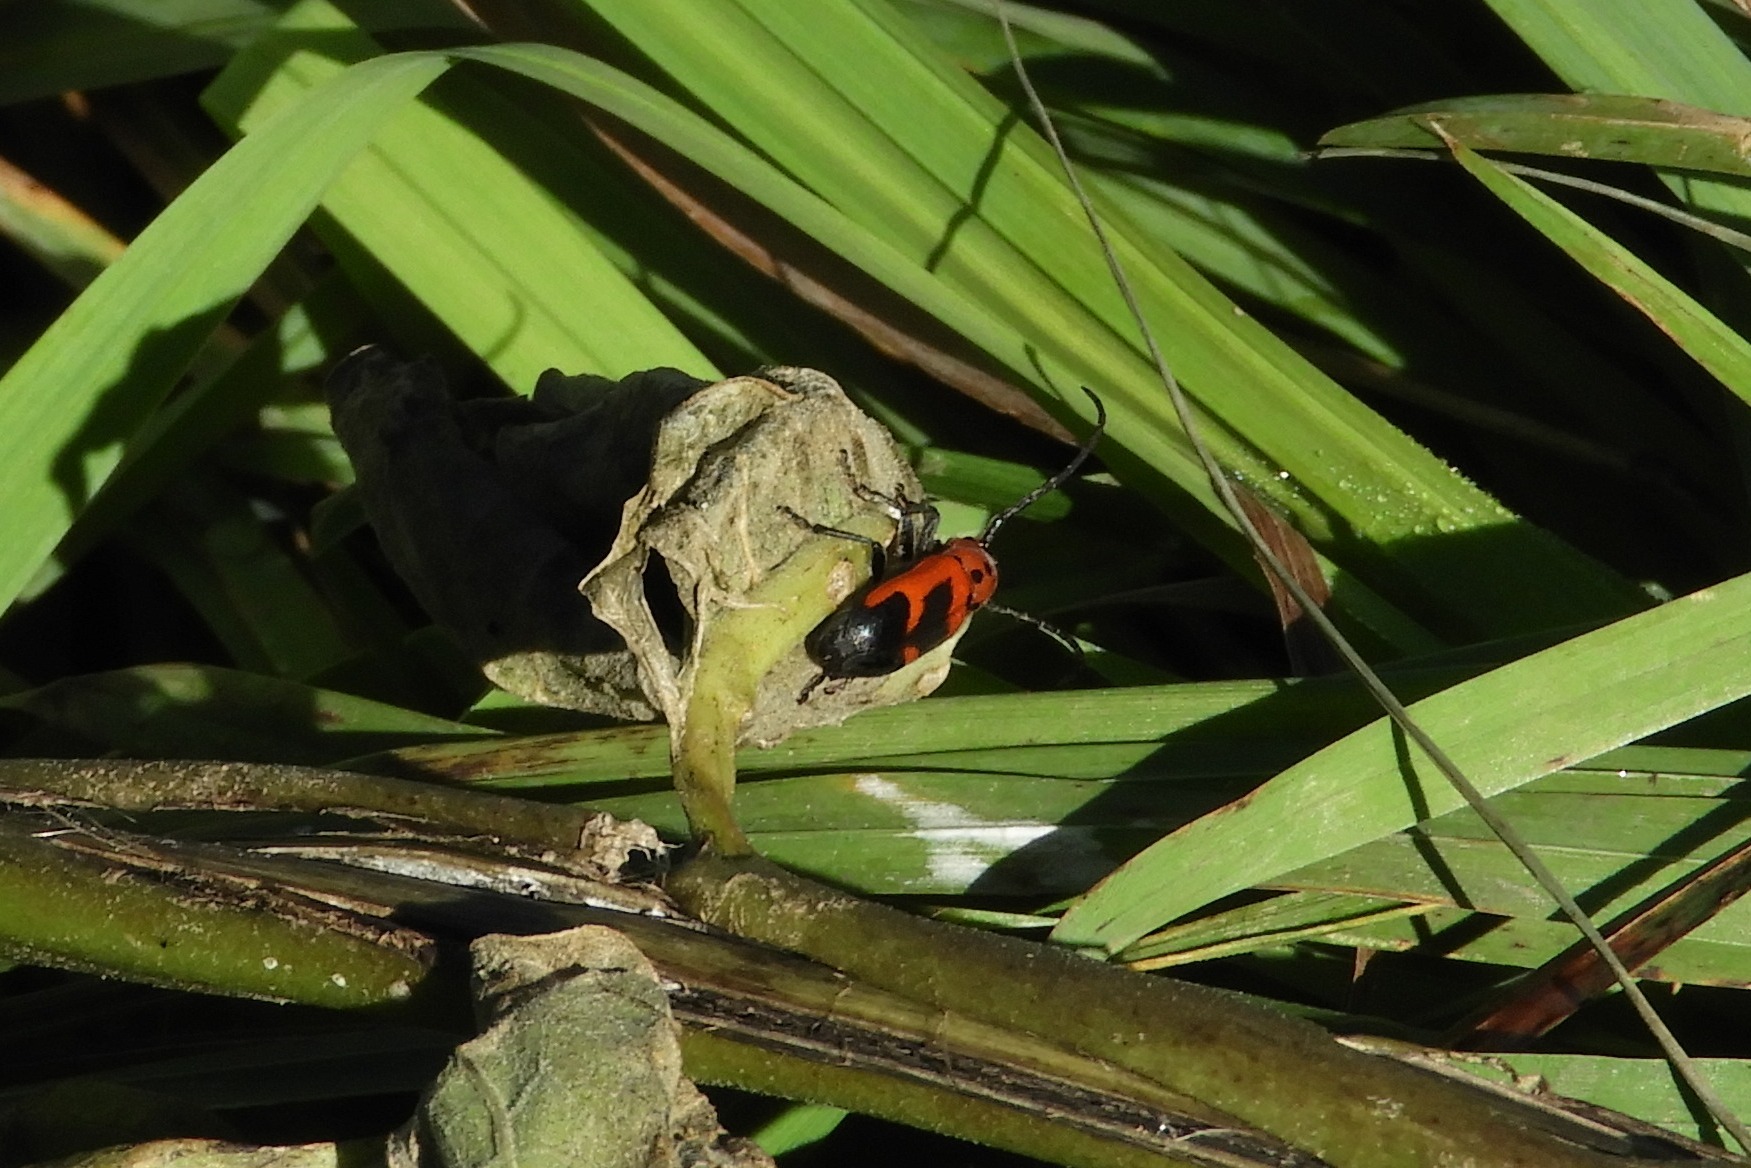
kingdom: Animalia
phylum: Arthropoda
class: Insecta
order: Coleoptera
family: Cerambycidae
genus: Tetraopes
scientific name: Tetraopes melanurus
